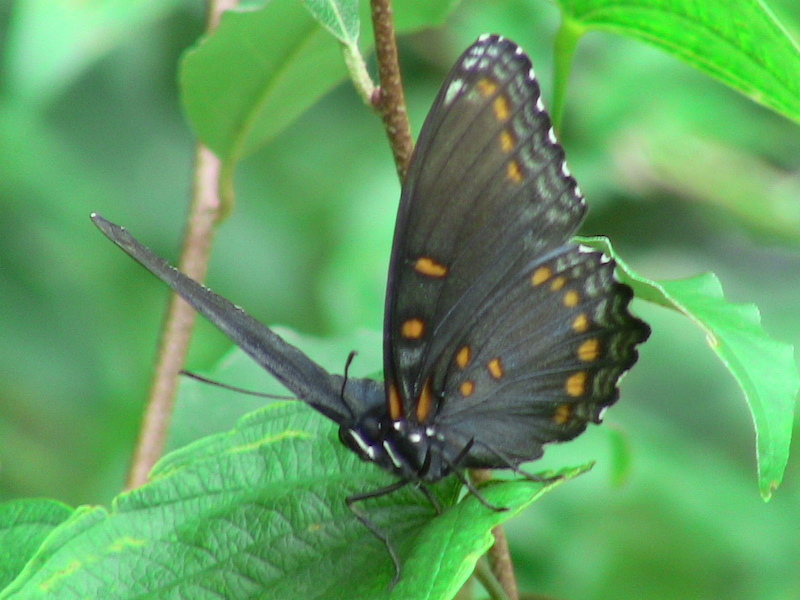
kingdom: Animalia
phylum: Arthropoda
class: Insecta
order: Lepidoptera
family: Nymphalidae
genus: Limenitis
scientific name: Limenitis astyanax
